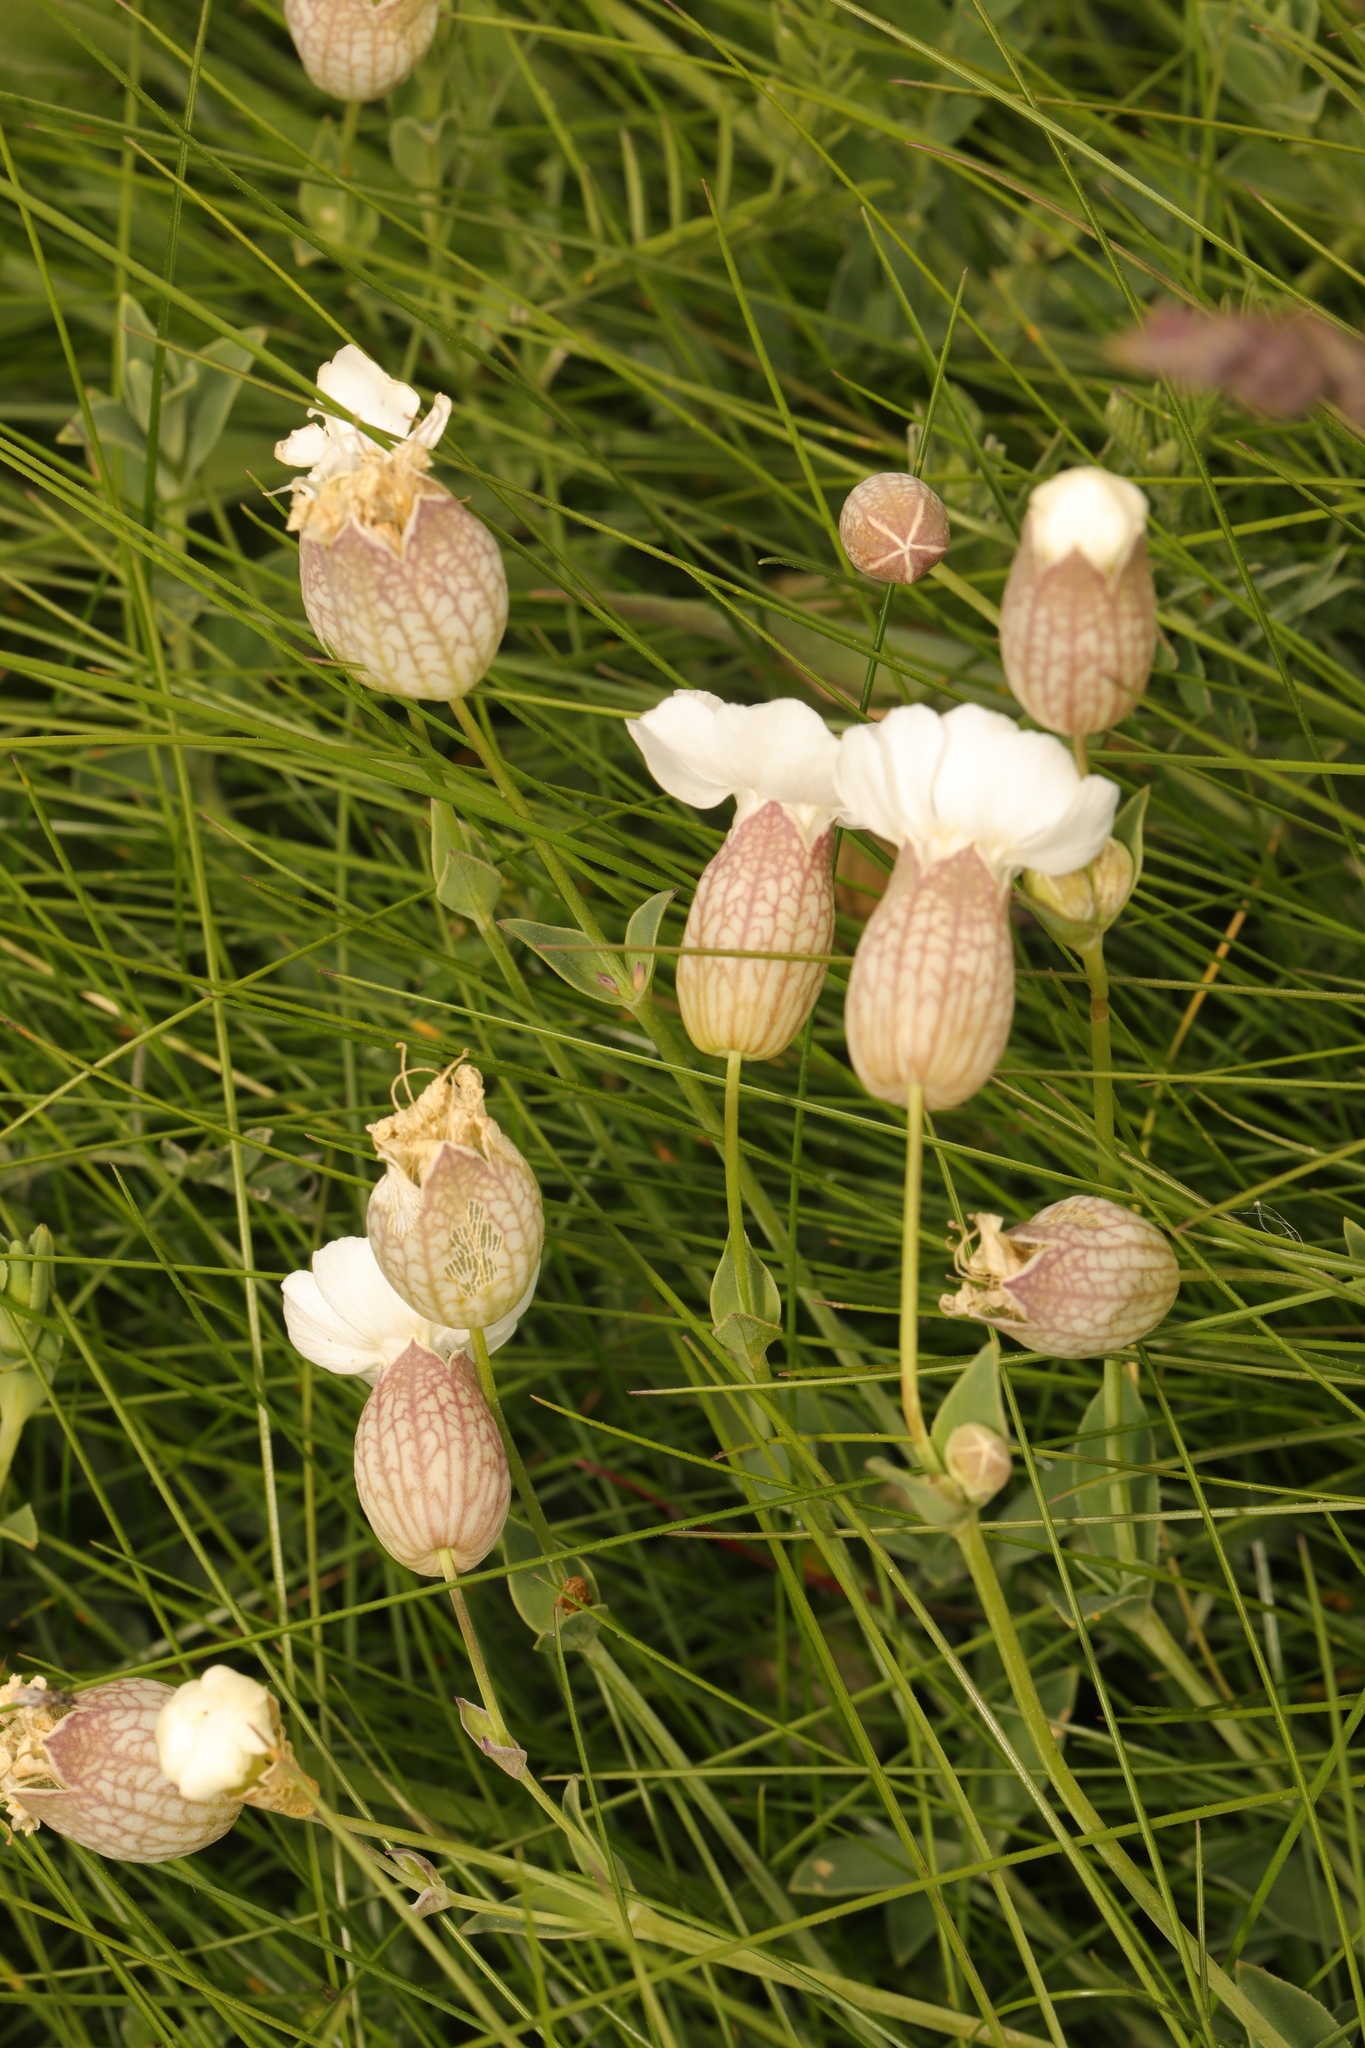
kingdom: Plantae
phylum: Tracheophyta
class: Magnoliopsida
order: Caryophyllales
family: Caryophyllaceae
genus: Silene
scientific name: Silene uniflora
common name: Sea campion
